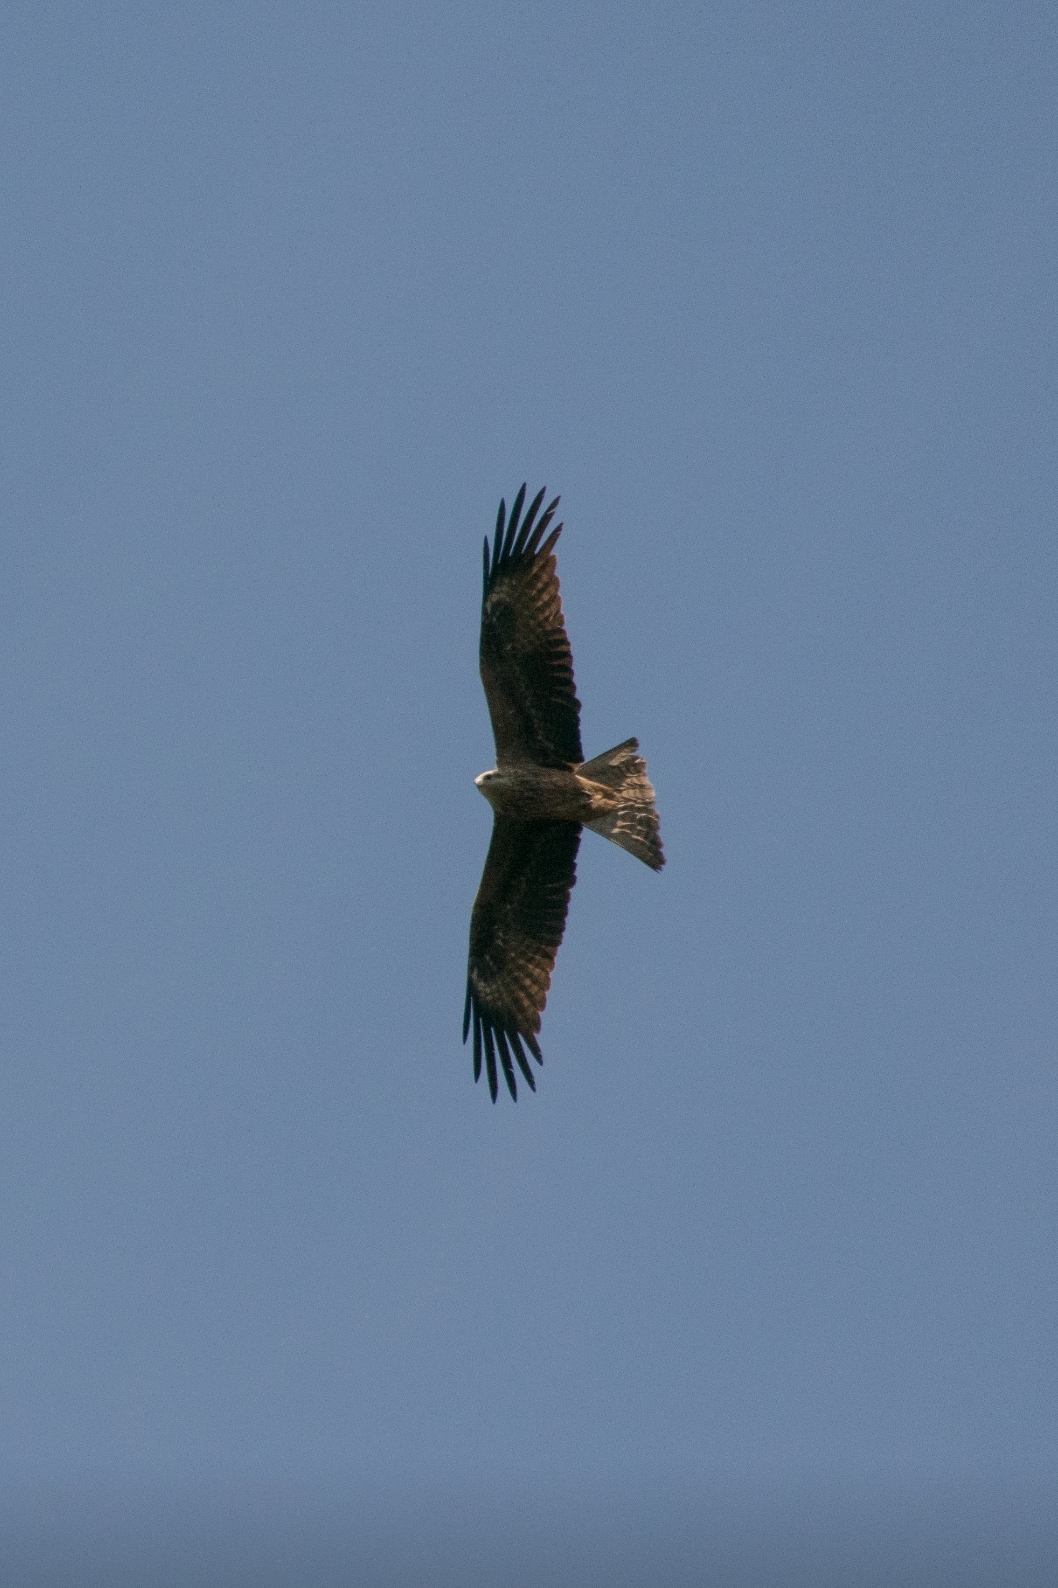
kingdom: Animalia
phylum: Chordata
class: Aves
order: Accipitriformes
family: Accipitridae
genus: Milvus
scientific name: Milvus migrans
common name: Black kite
